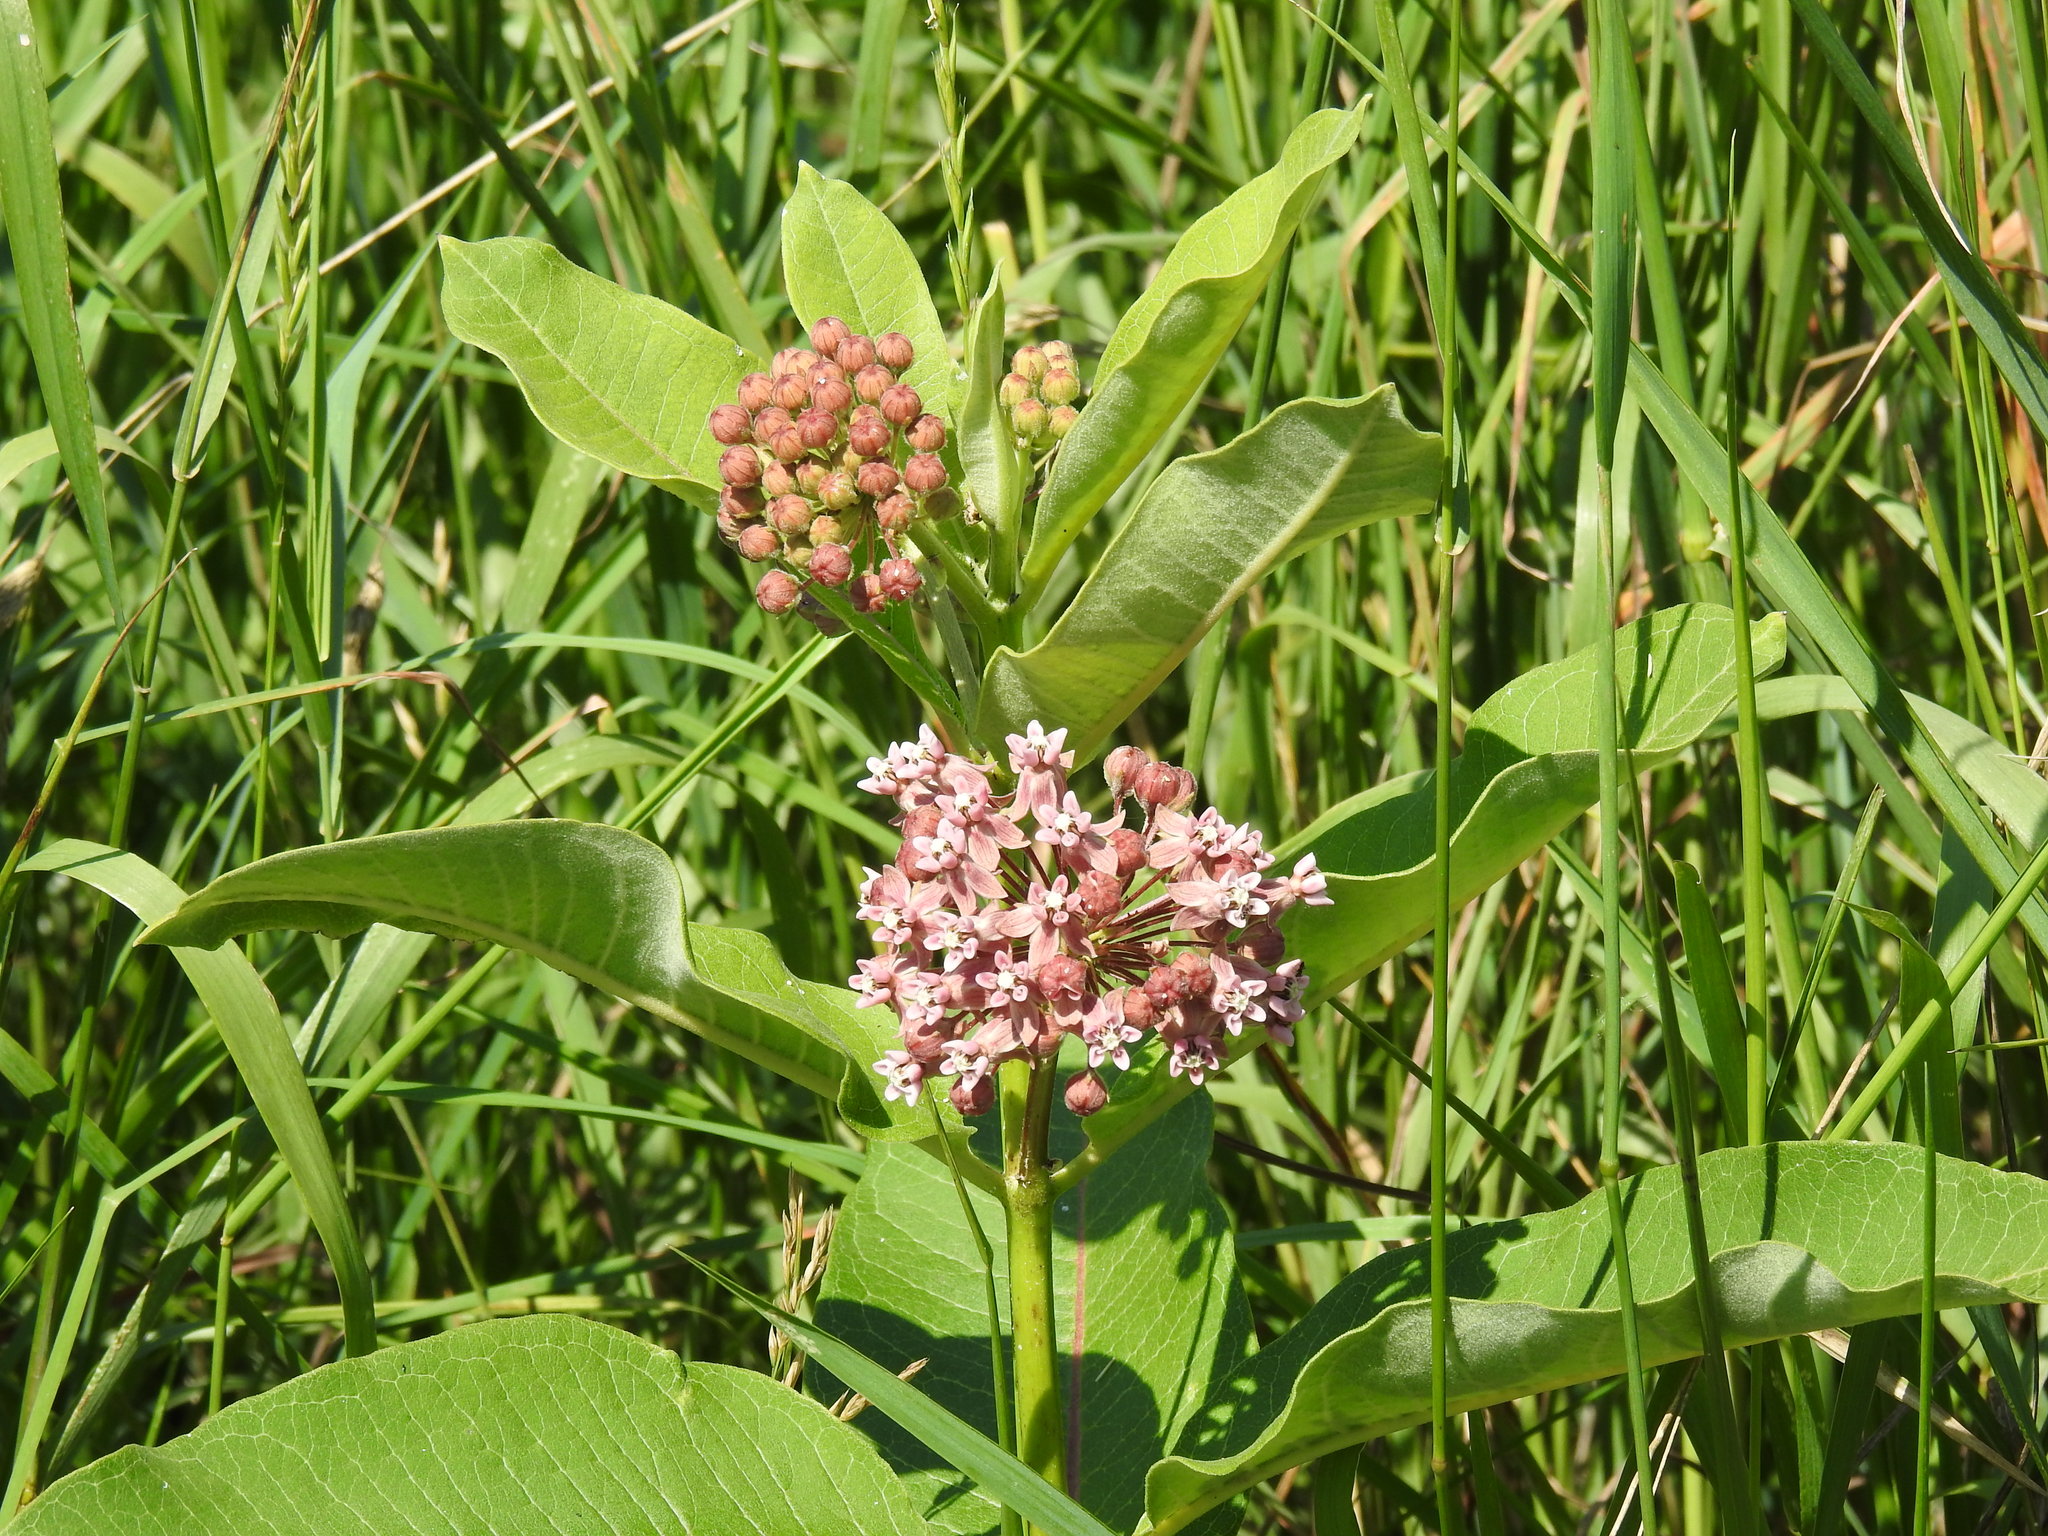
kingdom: Plantae
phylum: Tracheophyta
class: Magnoliopsida
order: Gentianales
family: Apocynaceae
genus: Asclepias
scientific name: Asclepias syriaca
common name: Common milkweed
